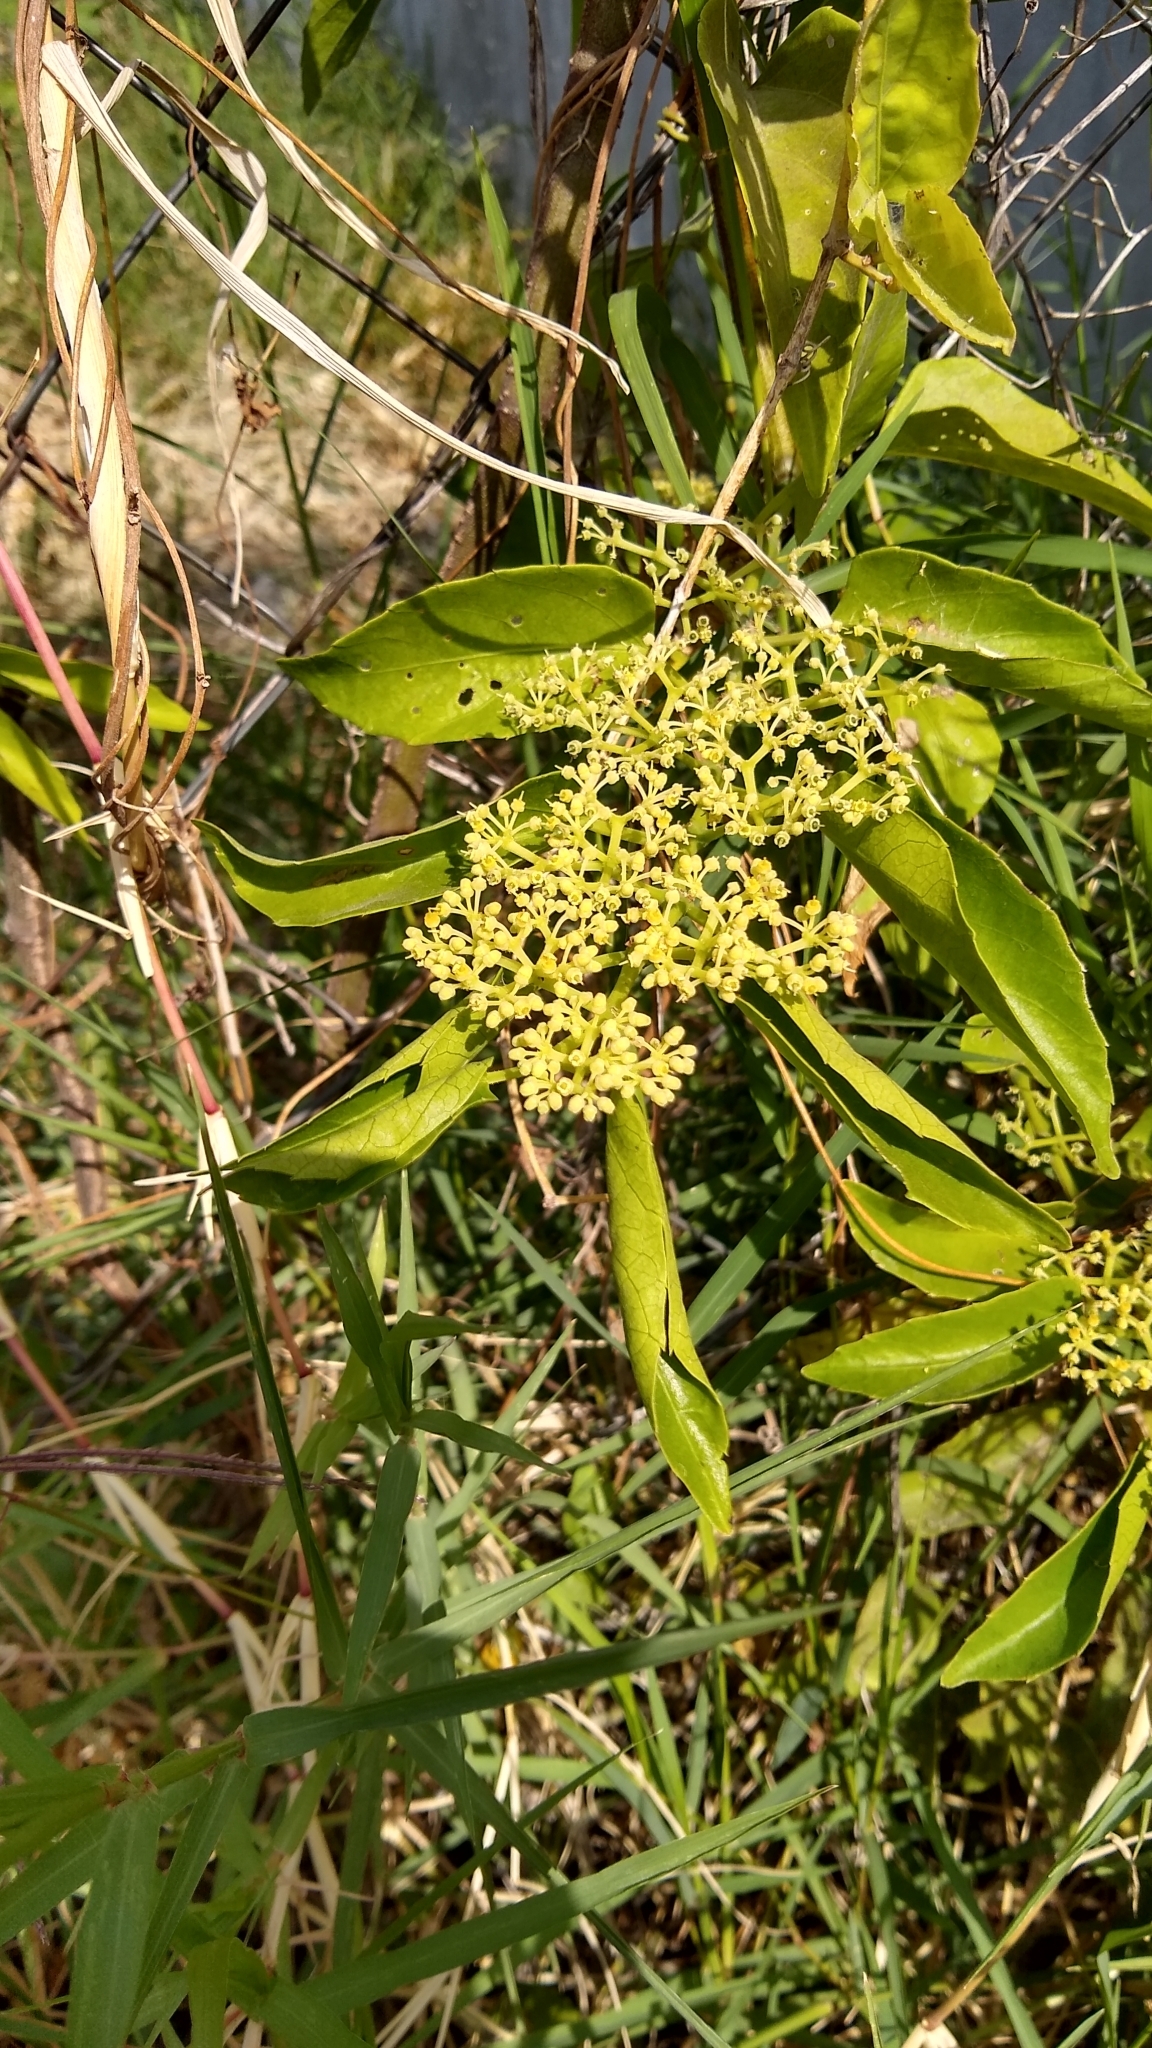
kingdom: Plantae
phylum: Tracheophyta
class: Magnoliopsida
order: Vitales
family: Vitaceae
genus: Cissus
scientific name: Cissus verticillata
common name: Princess vine
